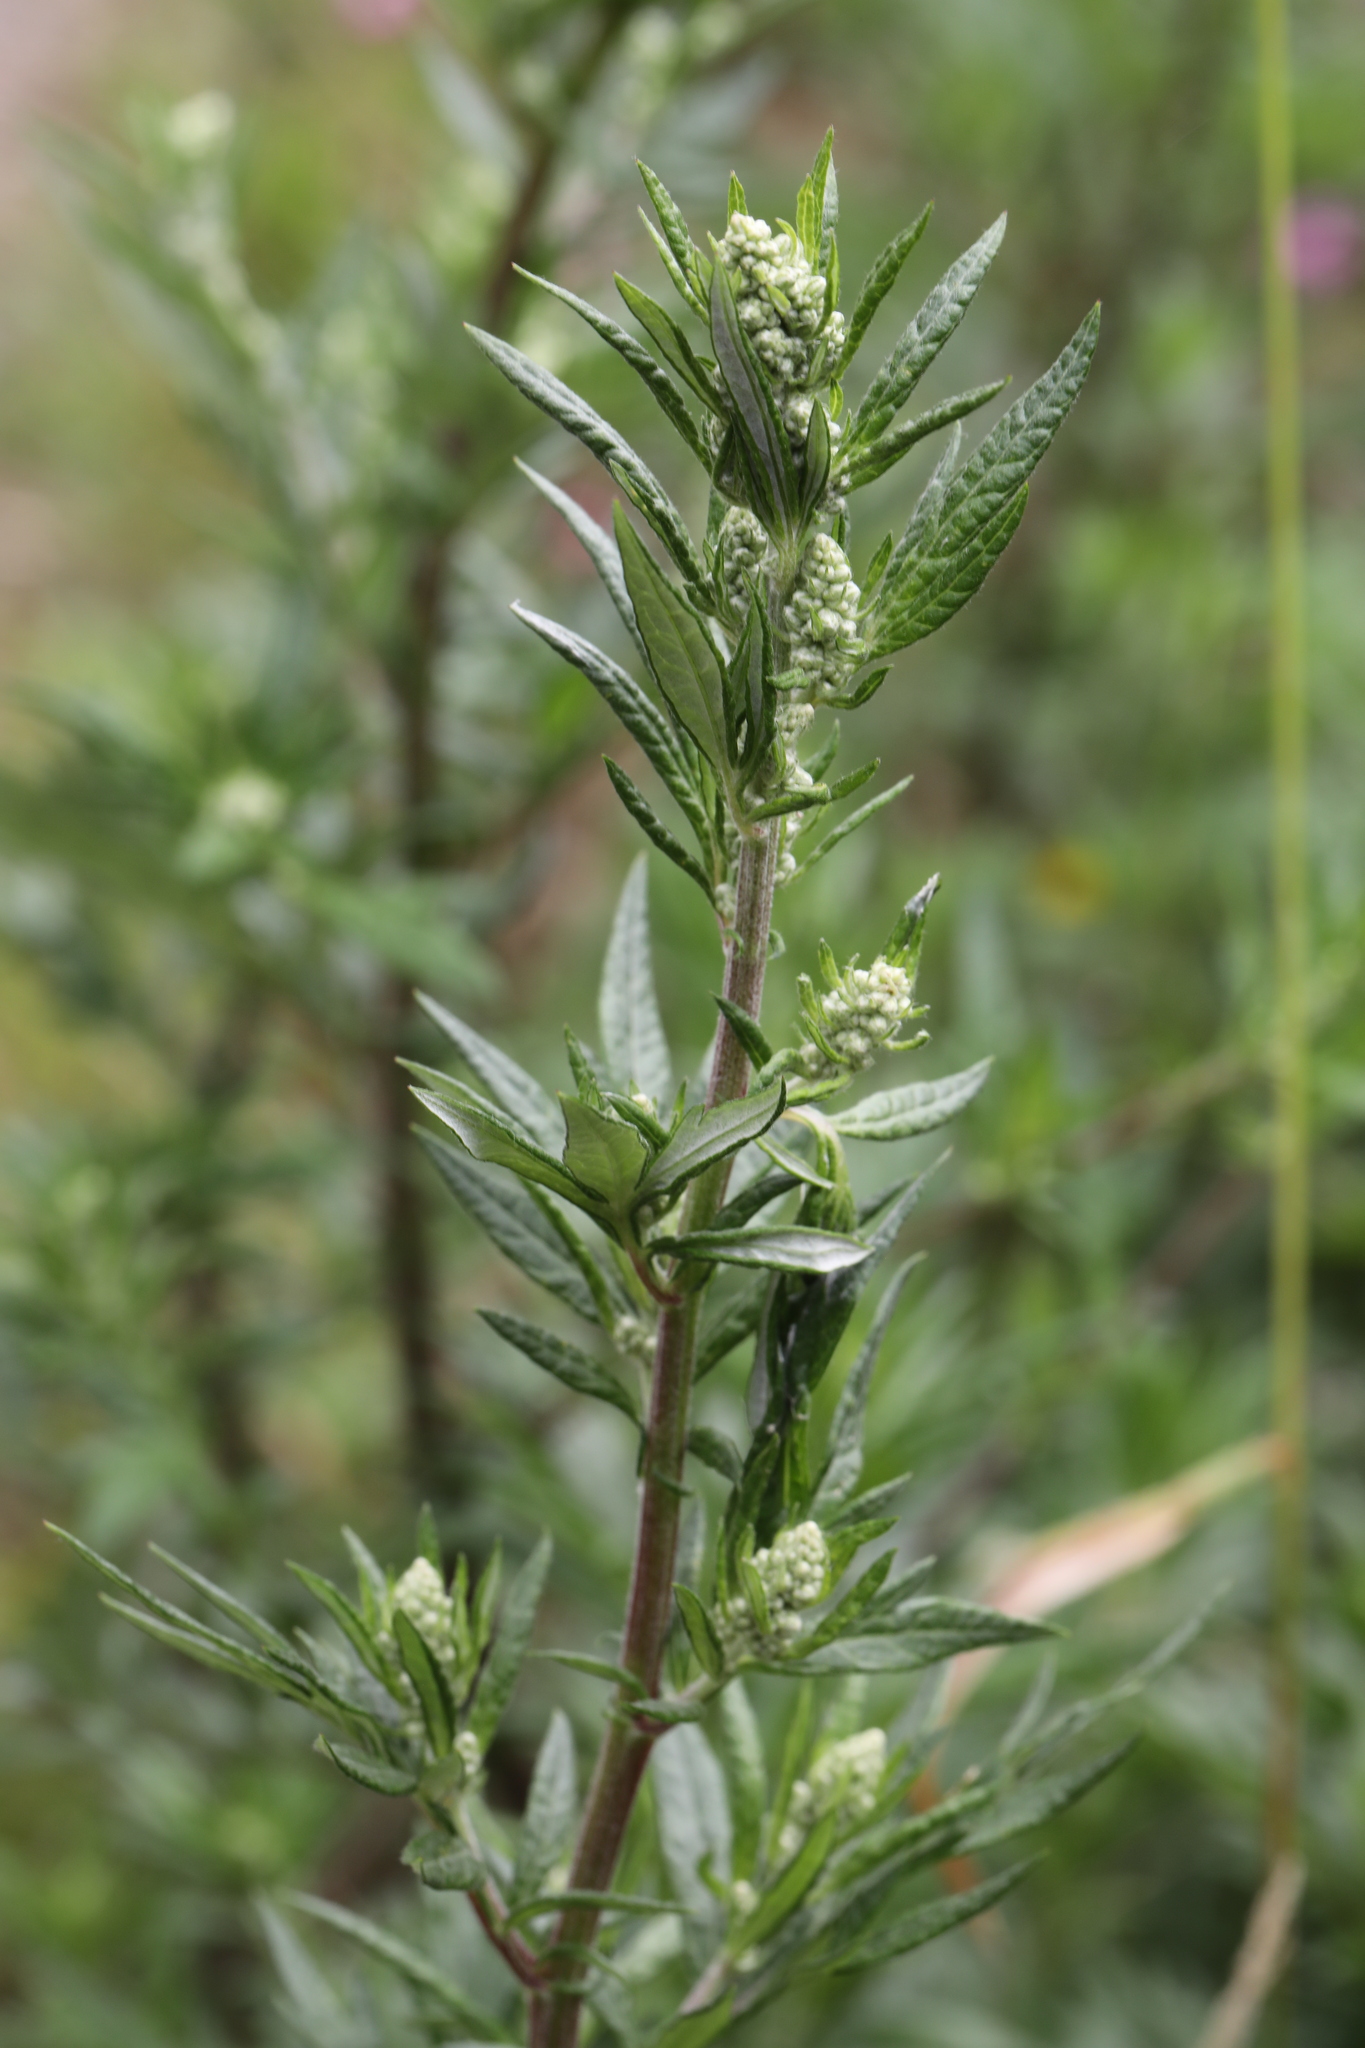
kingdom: Plantae
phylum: Tracheophyta
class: Magnoliopsida
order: Asterales
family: Asteraceae
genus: Artemisia
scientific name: Artemisia vulgaris
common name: Mugwort
